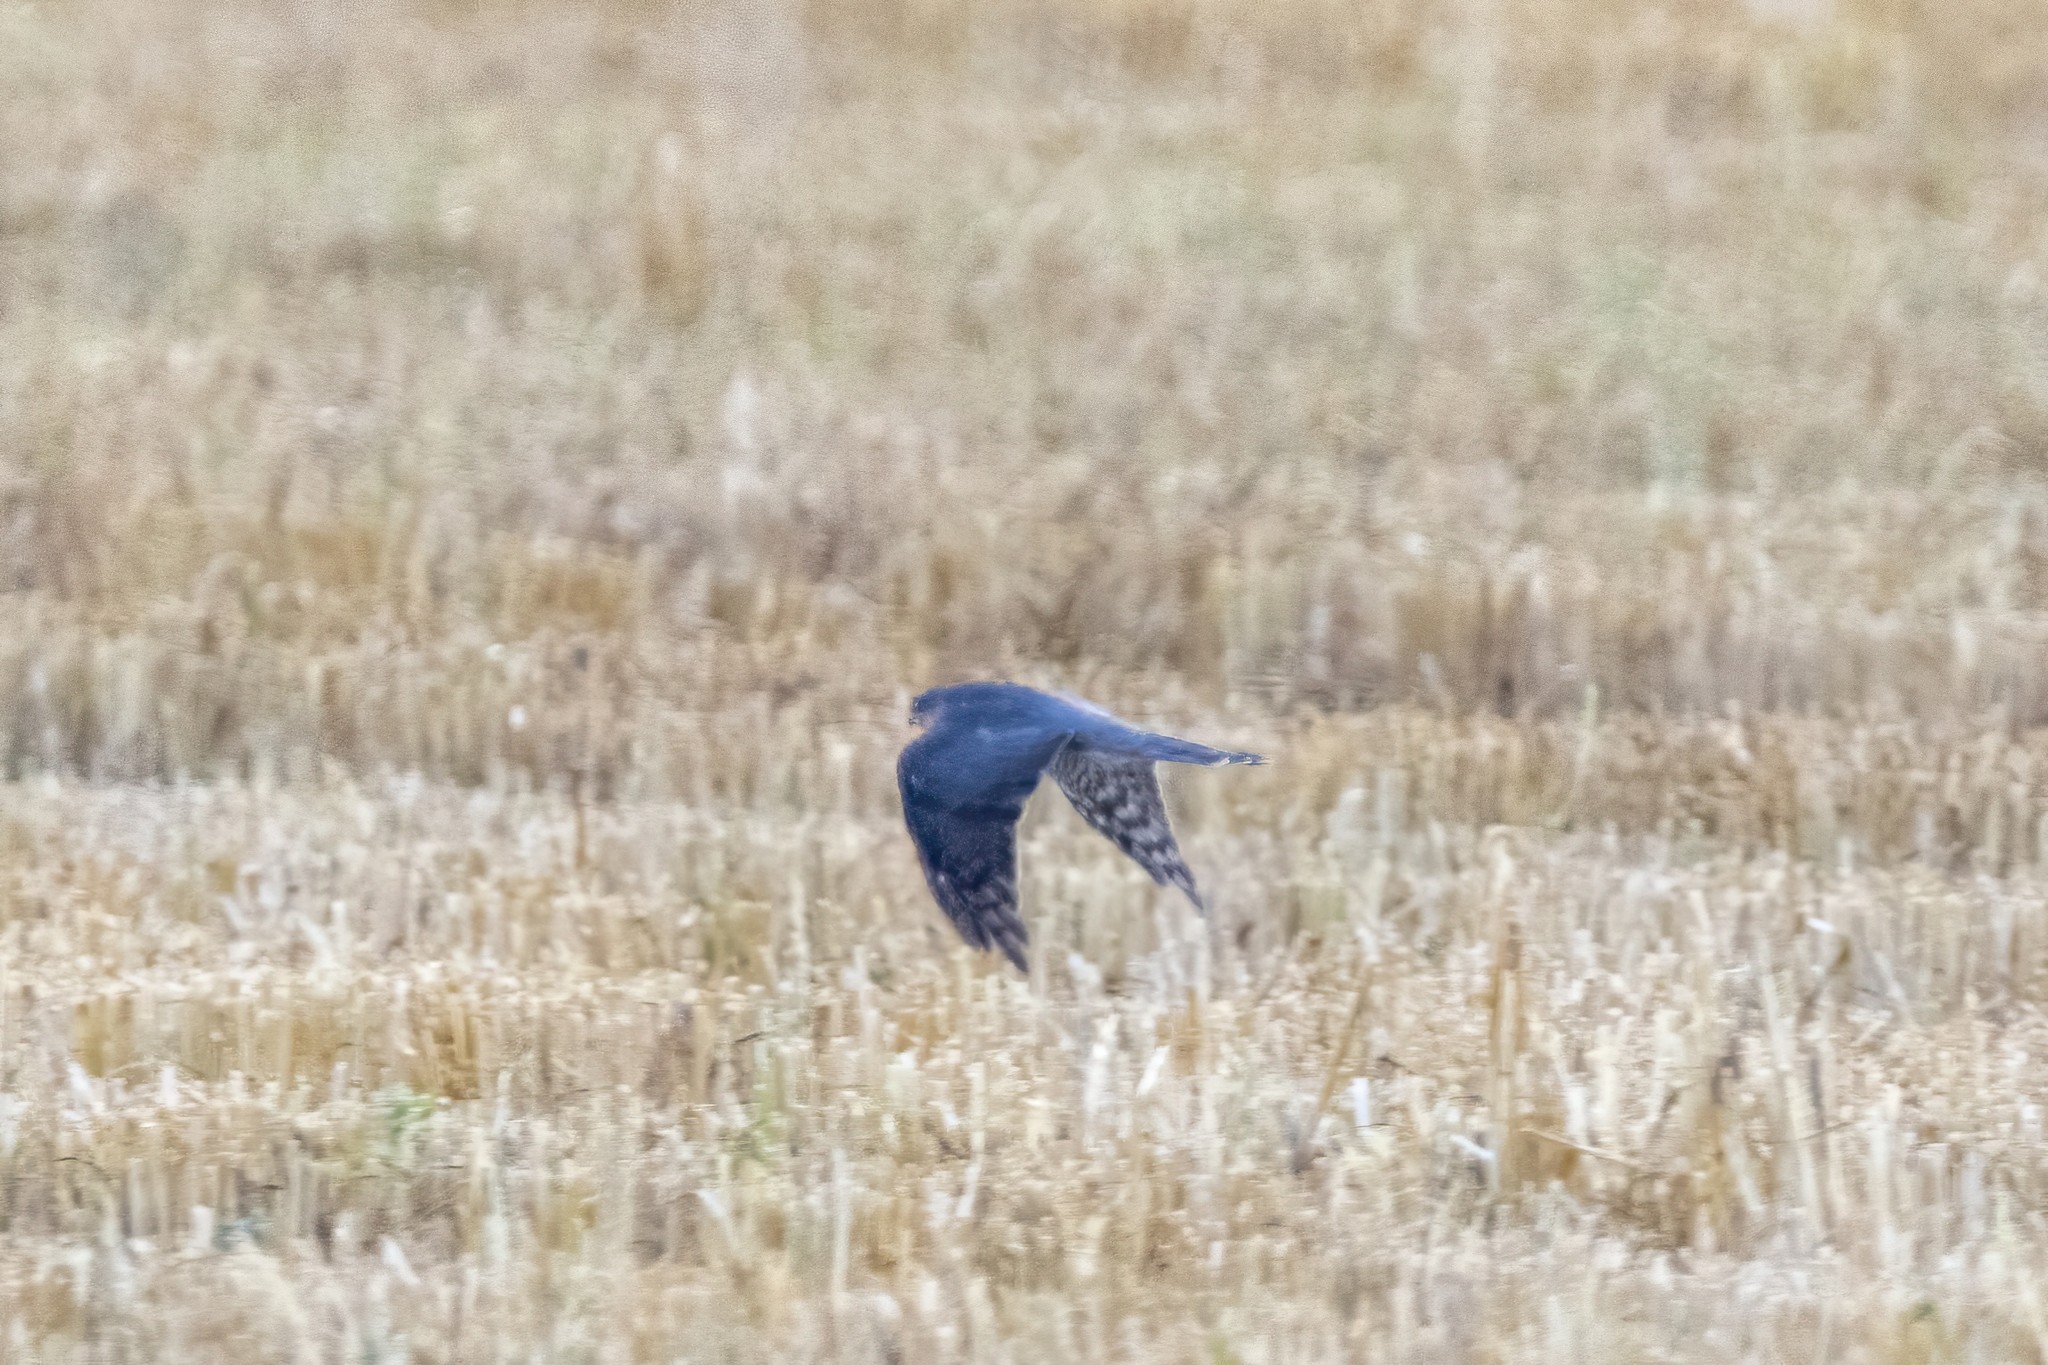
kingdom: Animalia
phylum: Chordata
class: Aves
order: Accipitriformes
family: Accipitridae
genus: Accipiter
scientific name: Accipiter nisus
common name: Eurasian sparrowhawk
